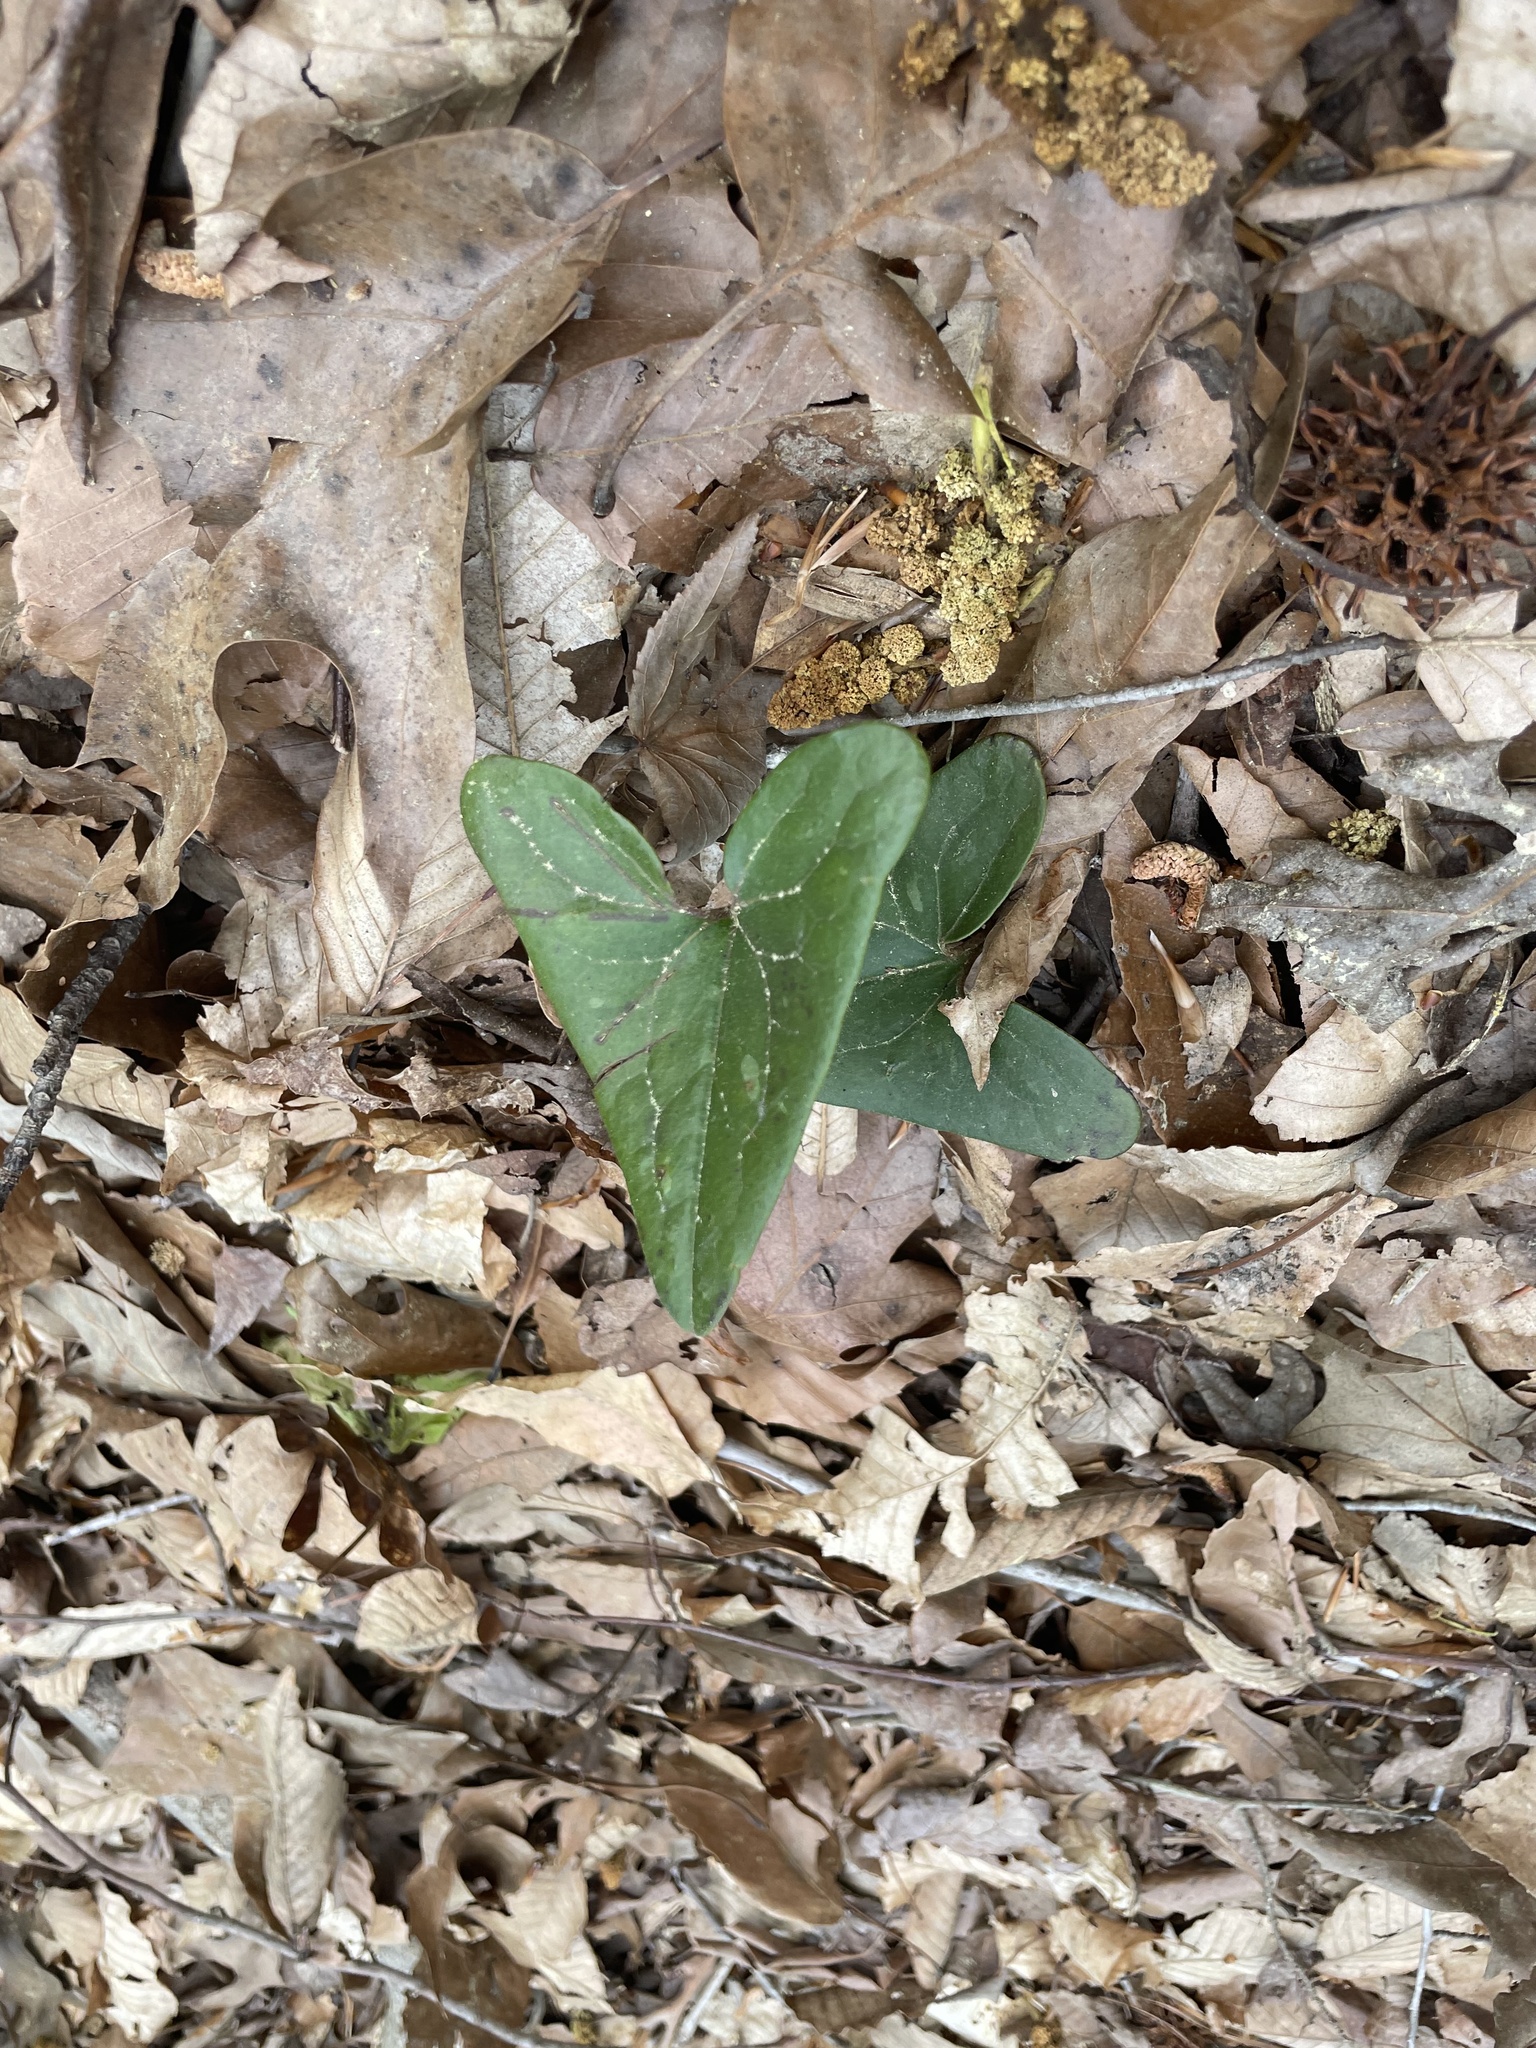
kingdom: Plantae
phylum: Tracheophyta
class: Magnoliopsida
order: Piperales
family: Aristolochiaceae
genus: Hexastylis
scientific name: Hexastylis arifolia
